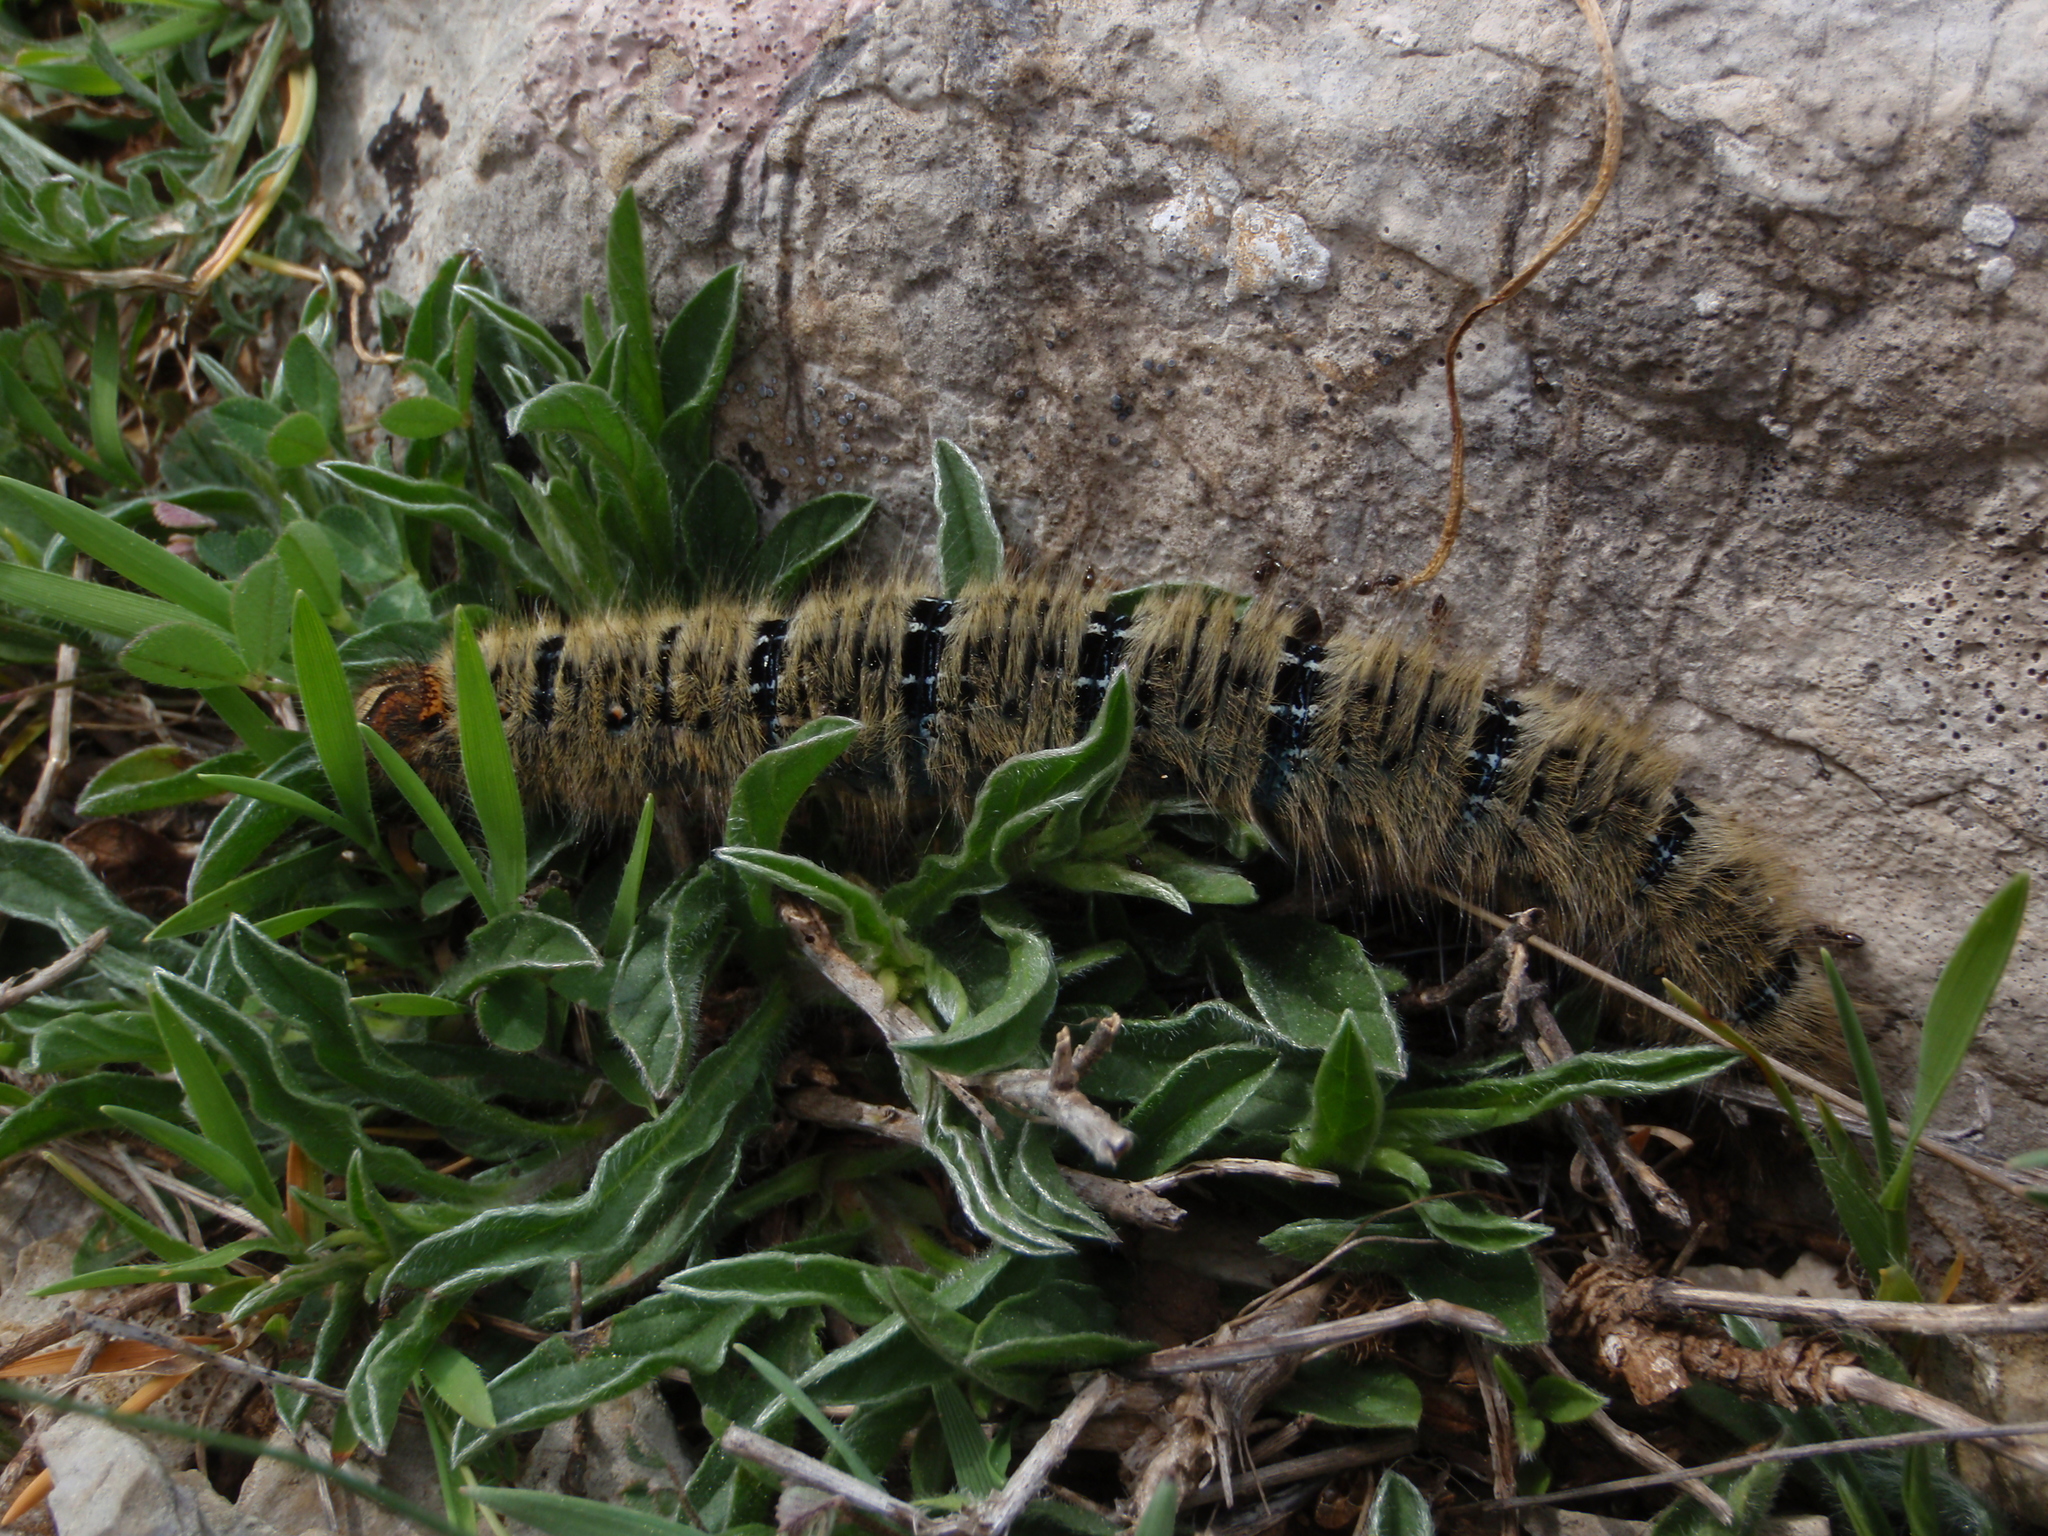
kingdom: Animalia
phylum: Arthropoda
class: Insecta
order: Lepidoptera
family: Lasiocampidae
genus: Lasiocampa
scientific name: Lasiocampa trifolii
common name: Grass eggar
